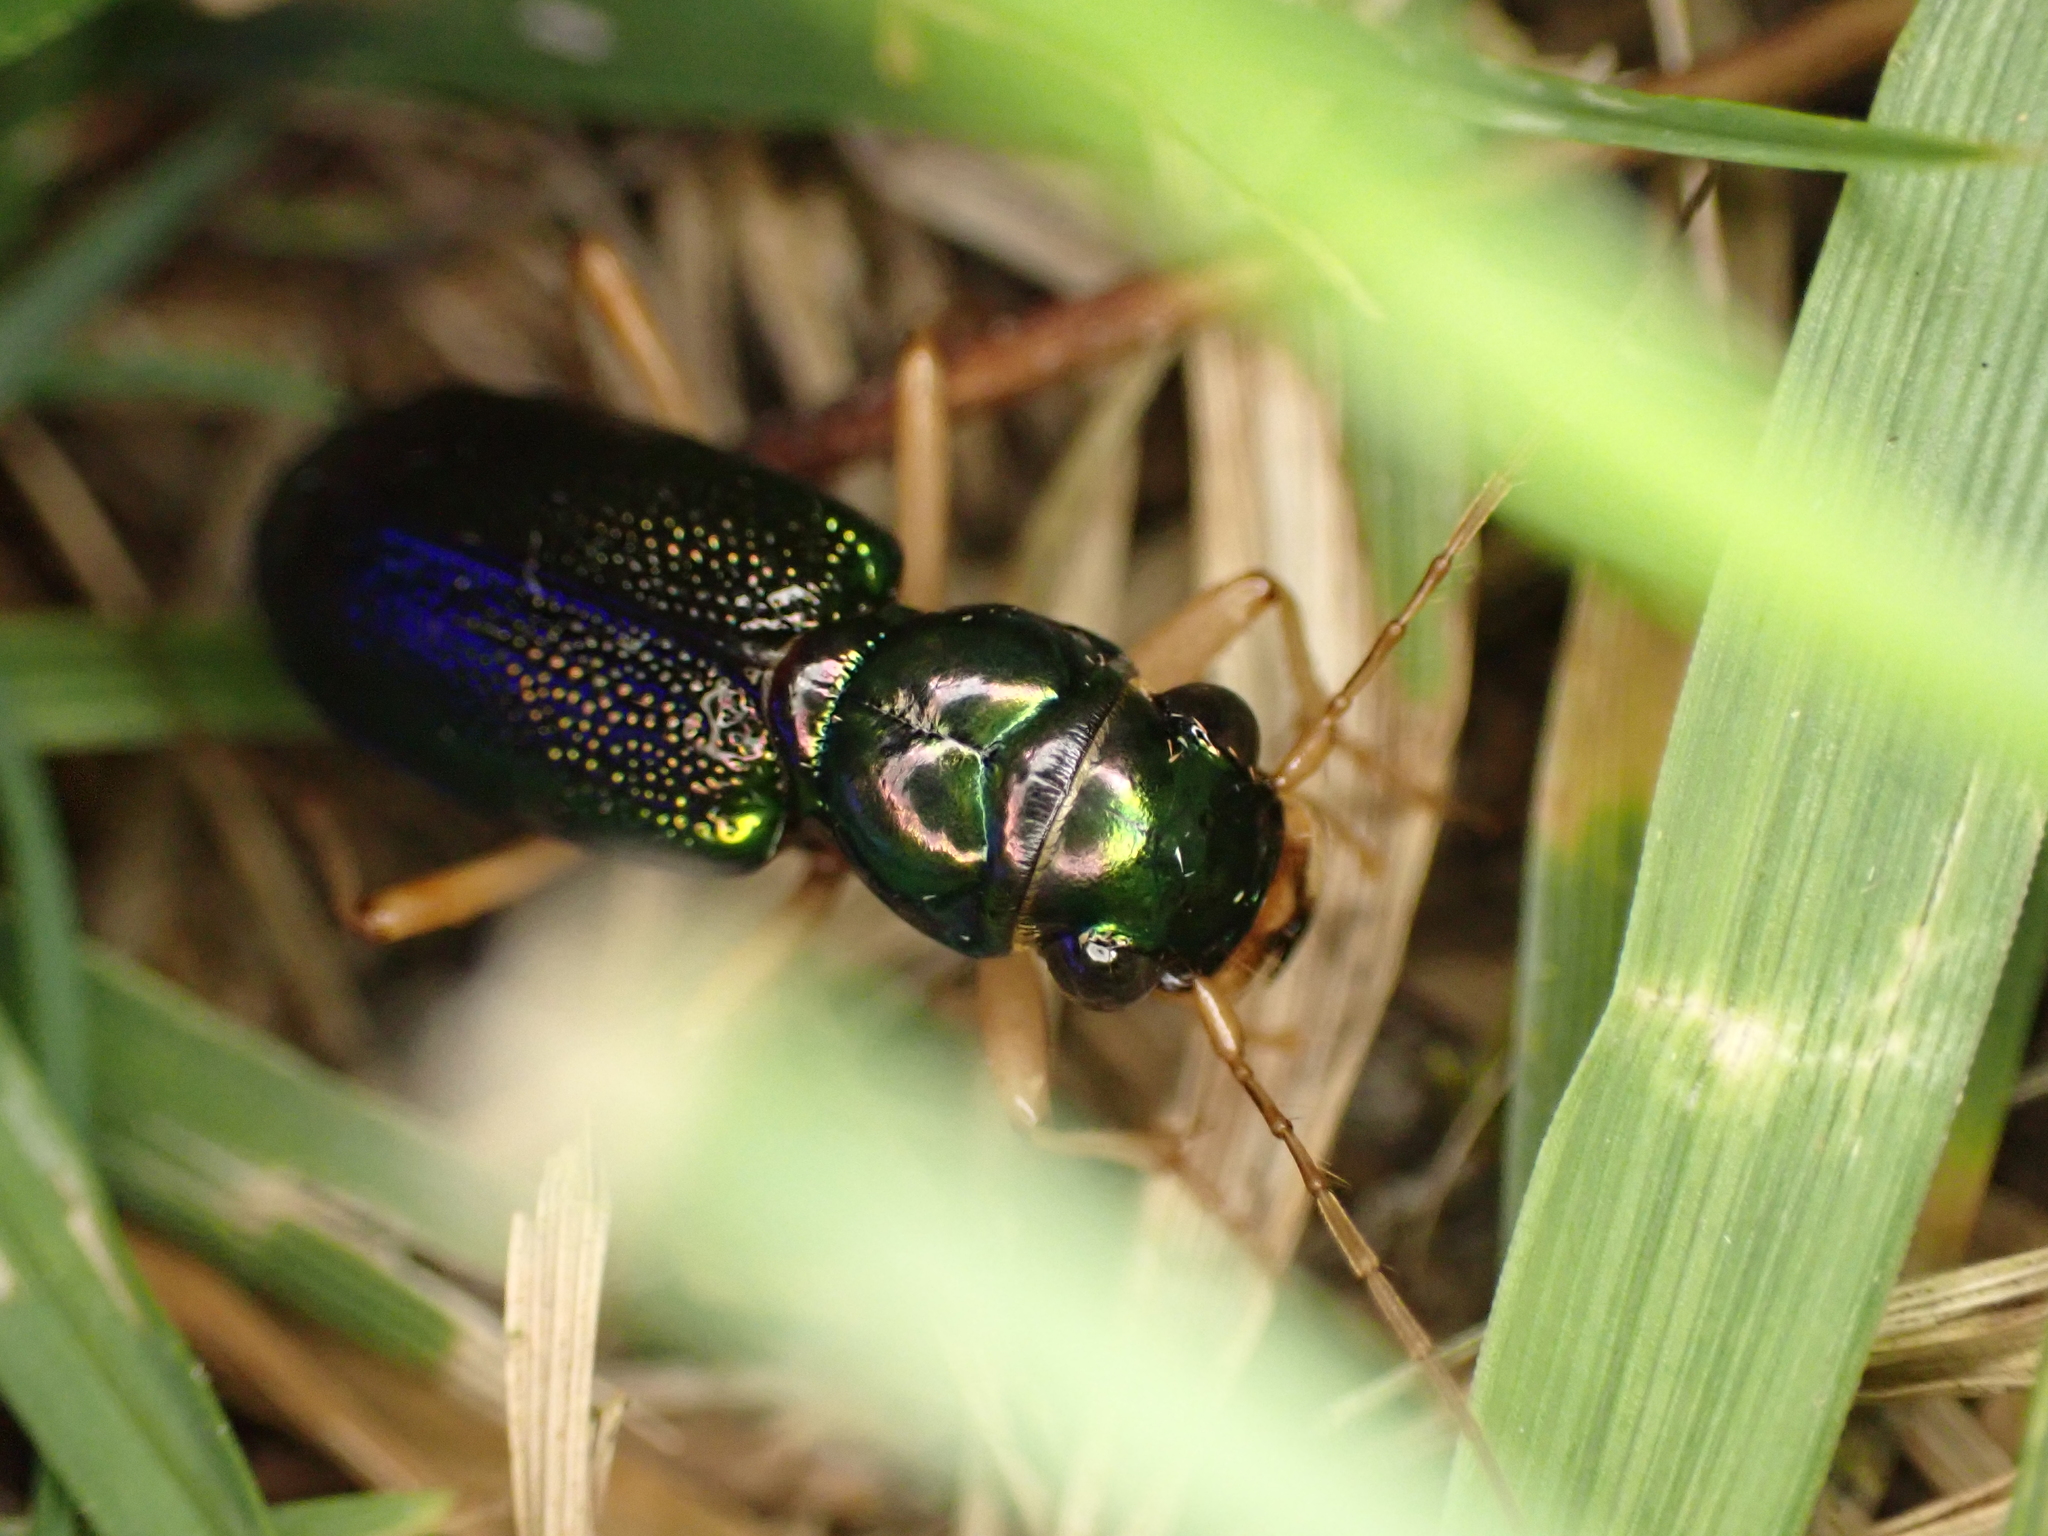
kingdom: Animalia
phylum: Arthropoda
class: Insecta
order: Coleoptera
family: Carabidae
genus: Tetracha
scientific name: Tetracha virginica
